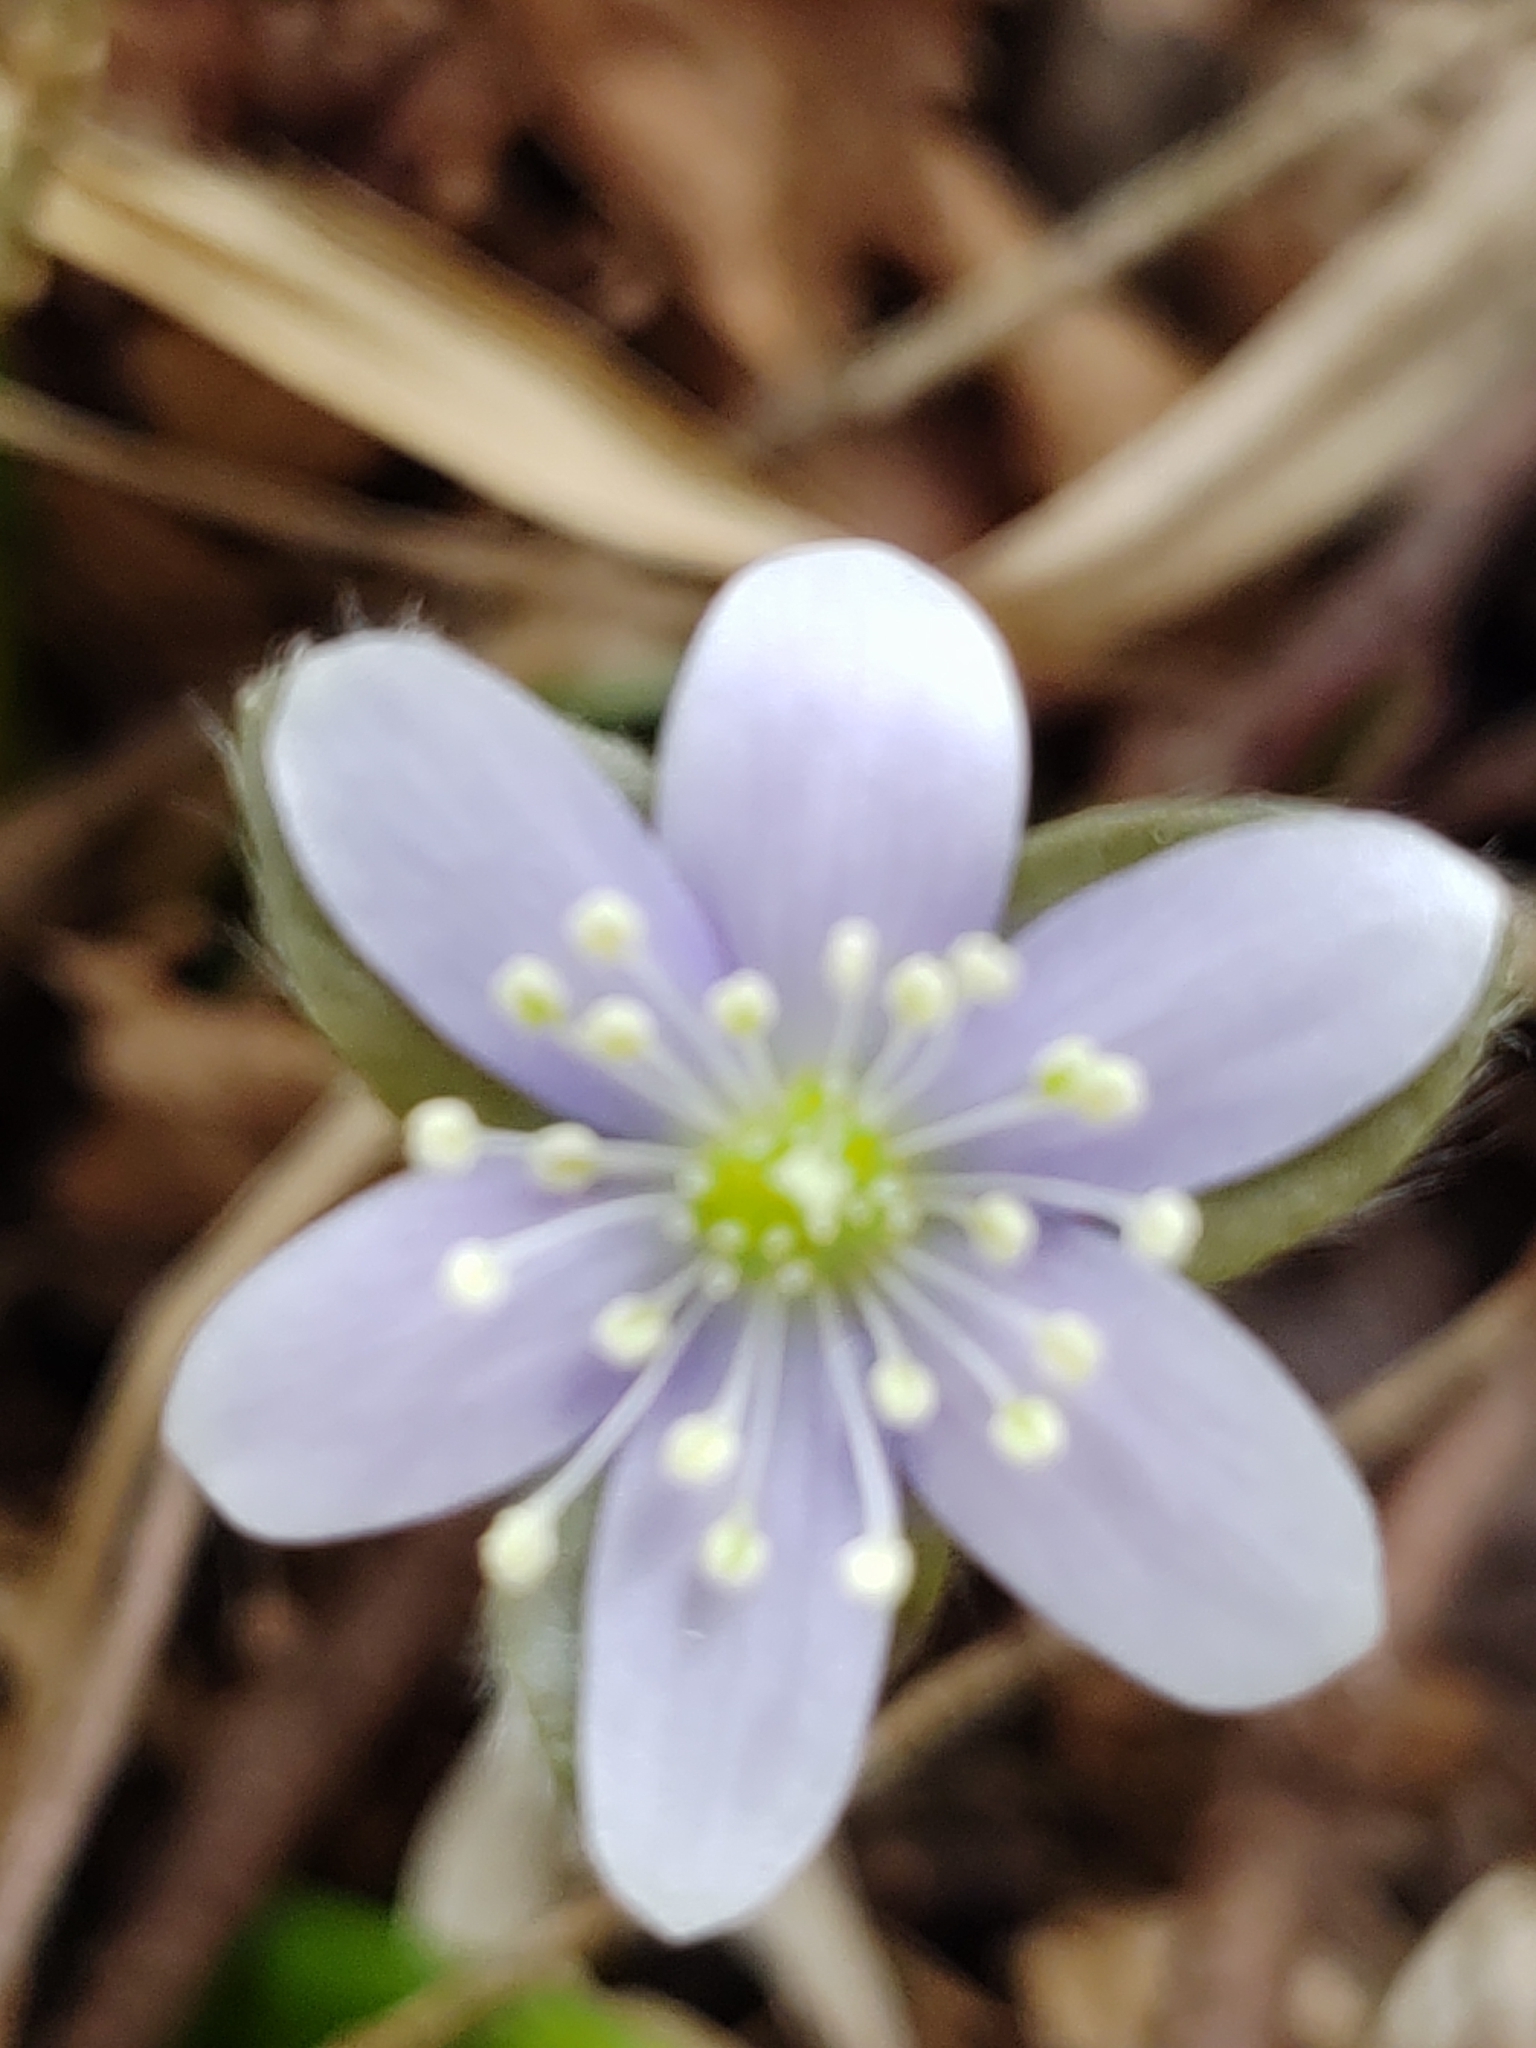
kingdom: Plantae
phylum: Tracheophyta
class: Magnoliopsida
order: Ranunculales
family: Ranunculaceae
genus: Hepatica
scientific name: Hepatica acutiloba
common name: Sharp-lobed hepatica
